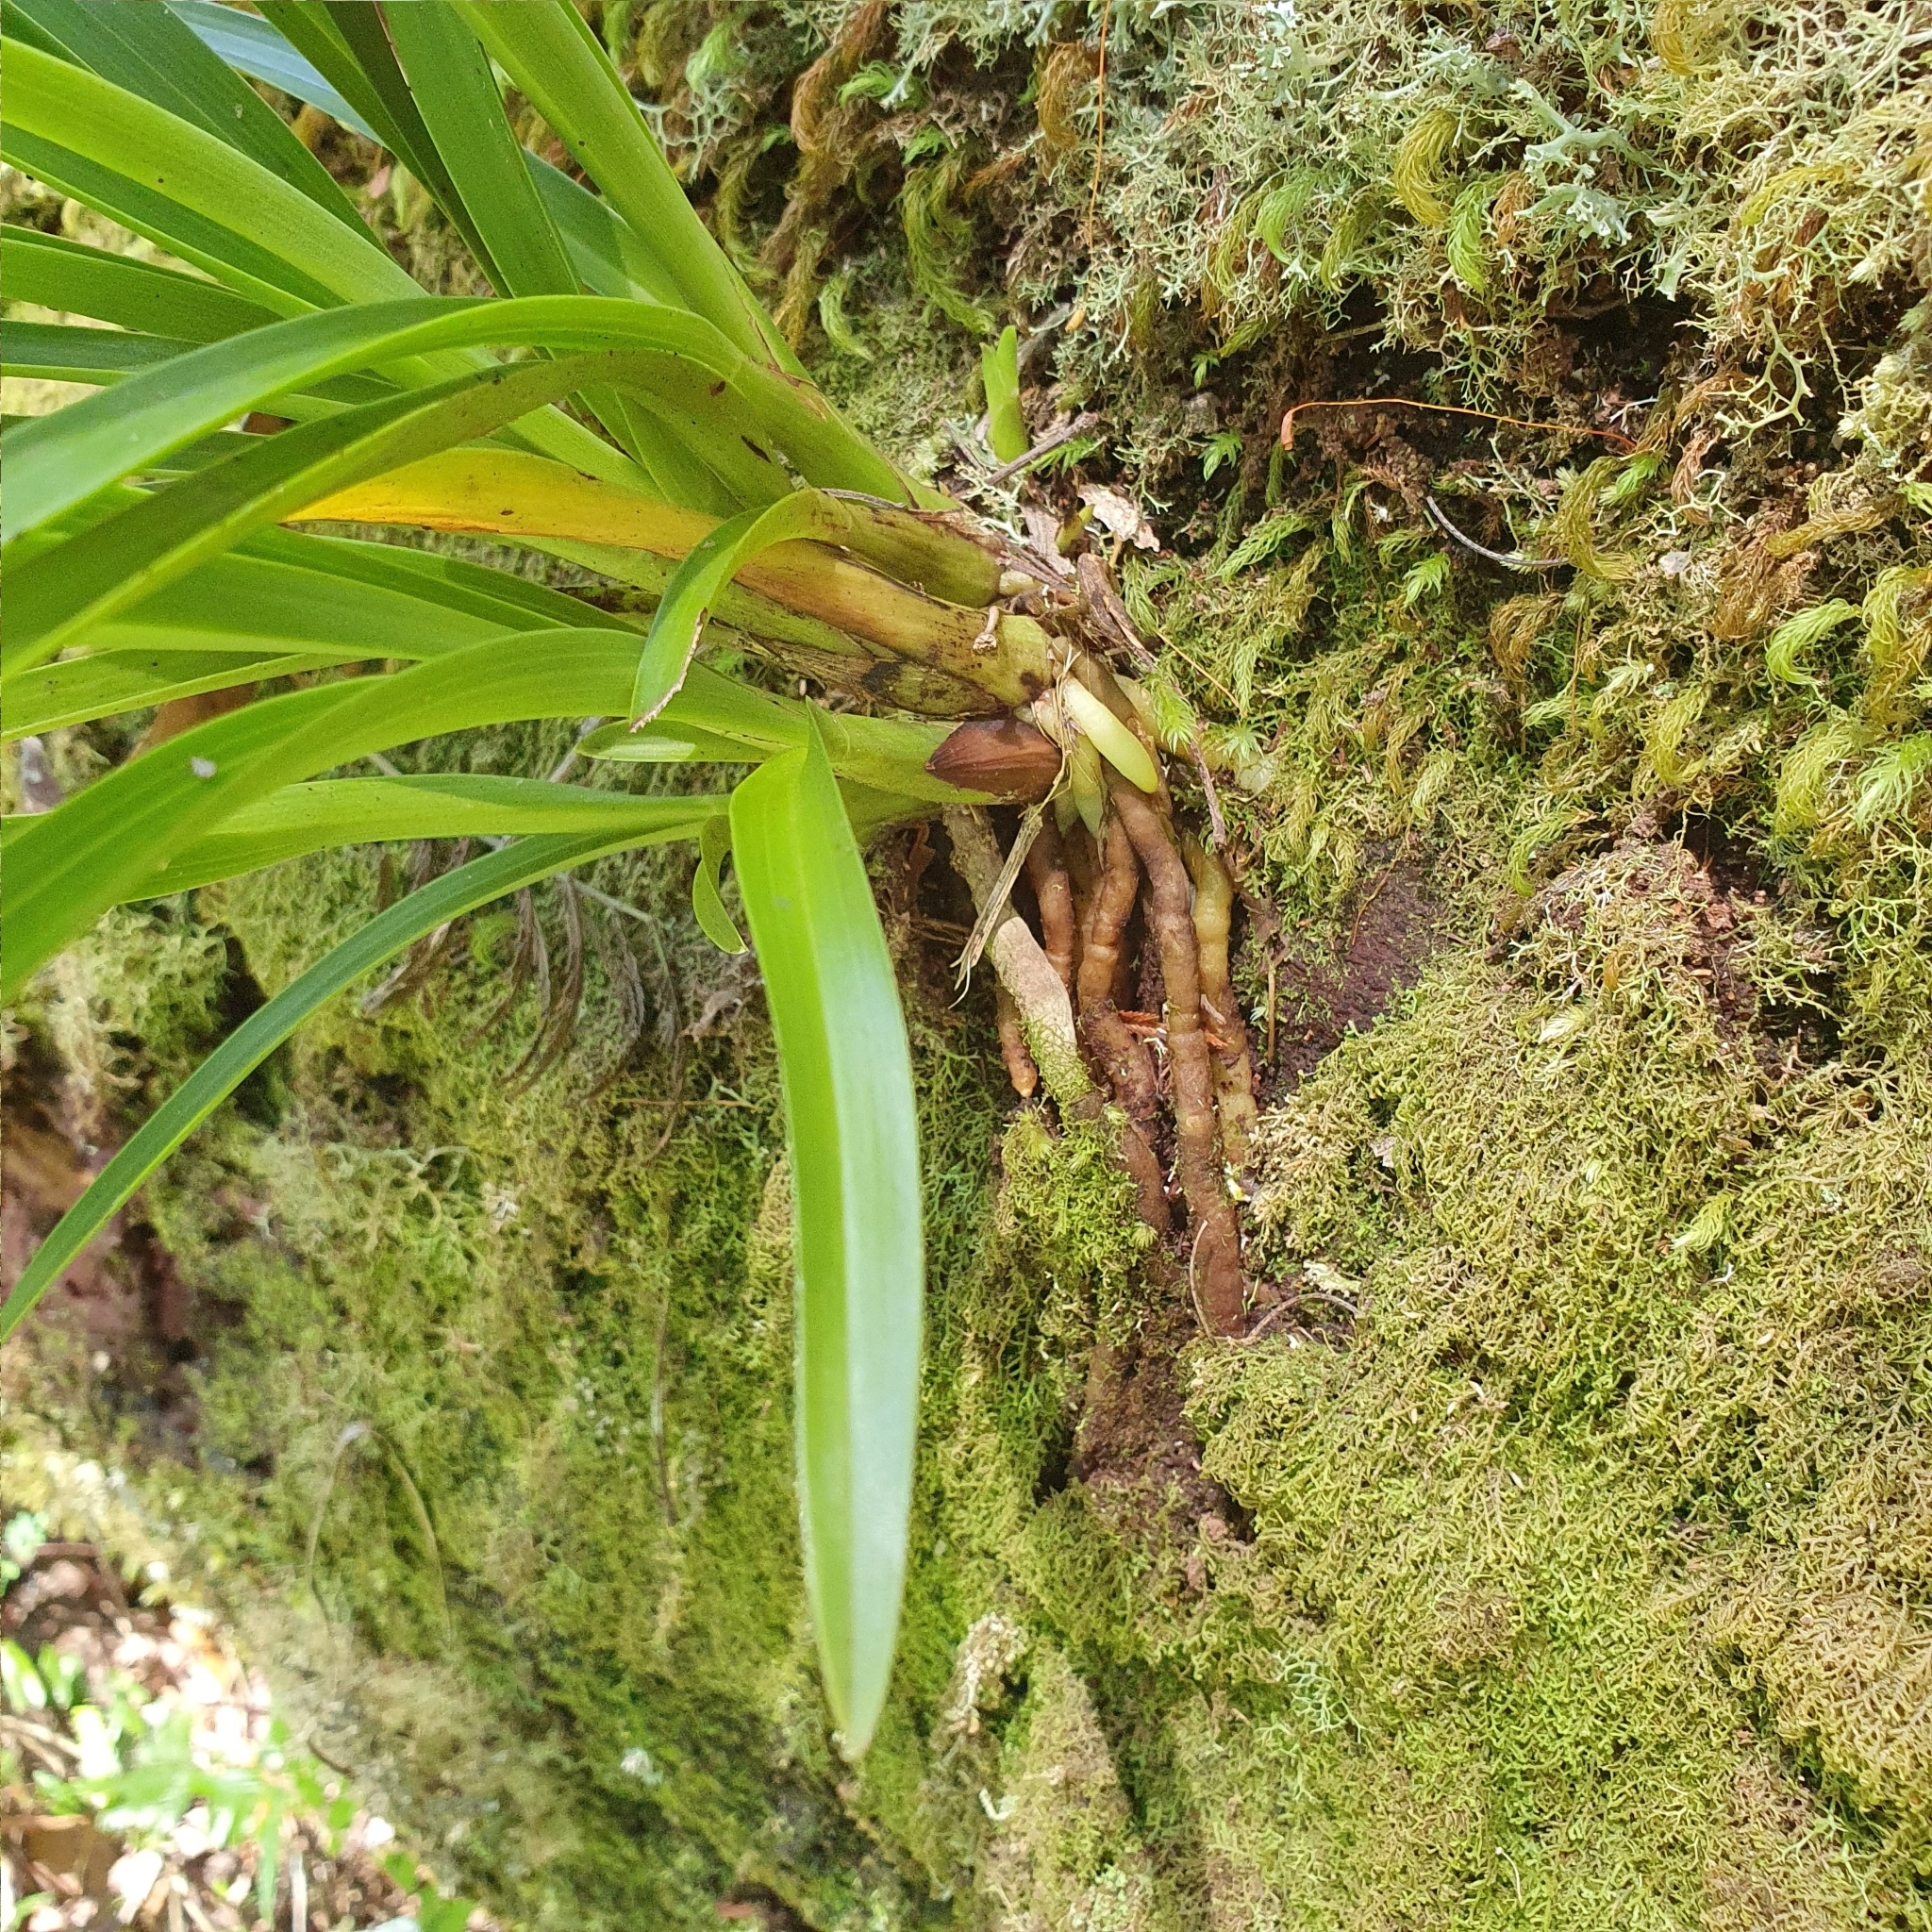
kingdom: Plantae
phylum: Tracheophyta
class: Liliopsida
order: Asparagales
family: Orchidaceae
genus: Cymbidium
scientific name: Cymbidium suave
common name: Snake orchid
